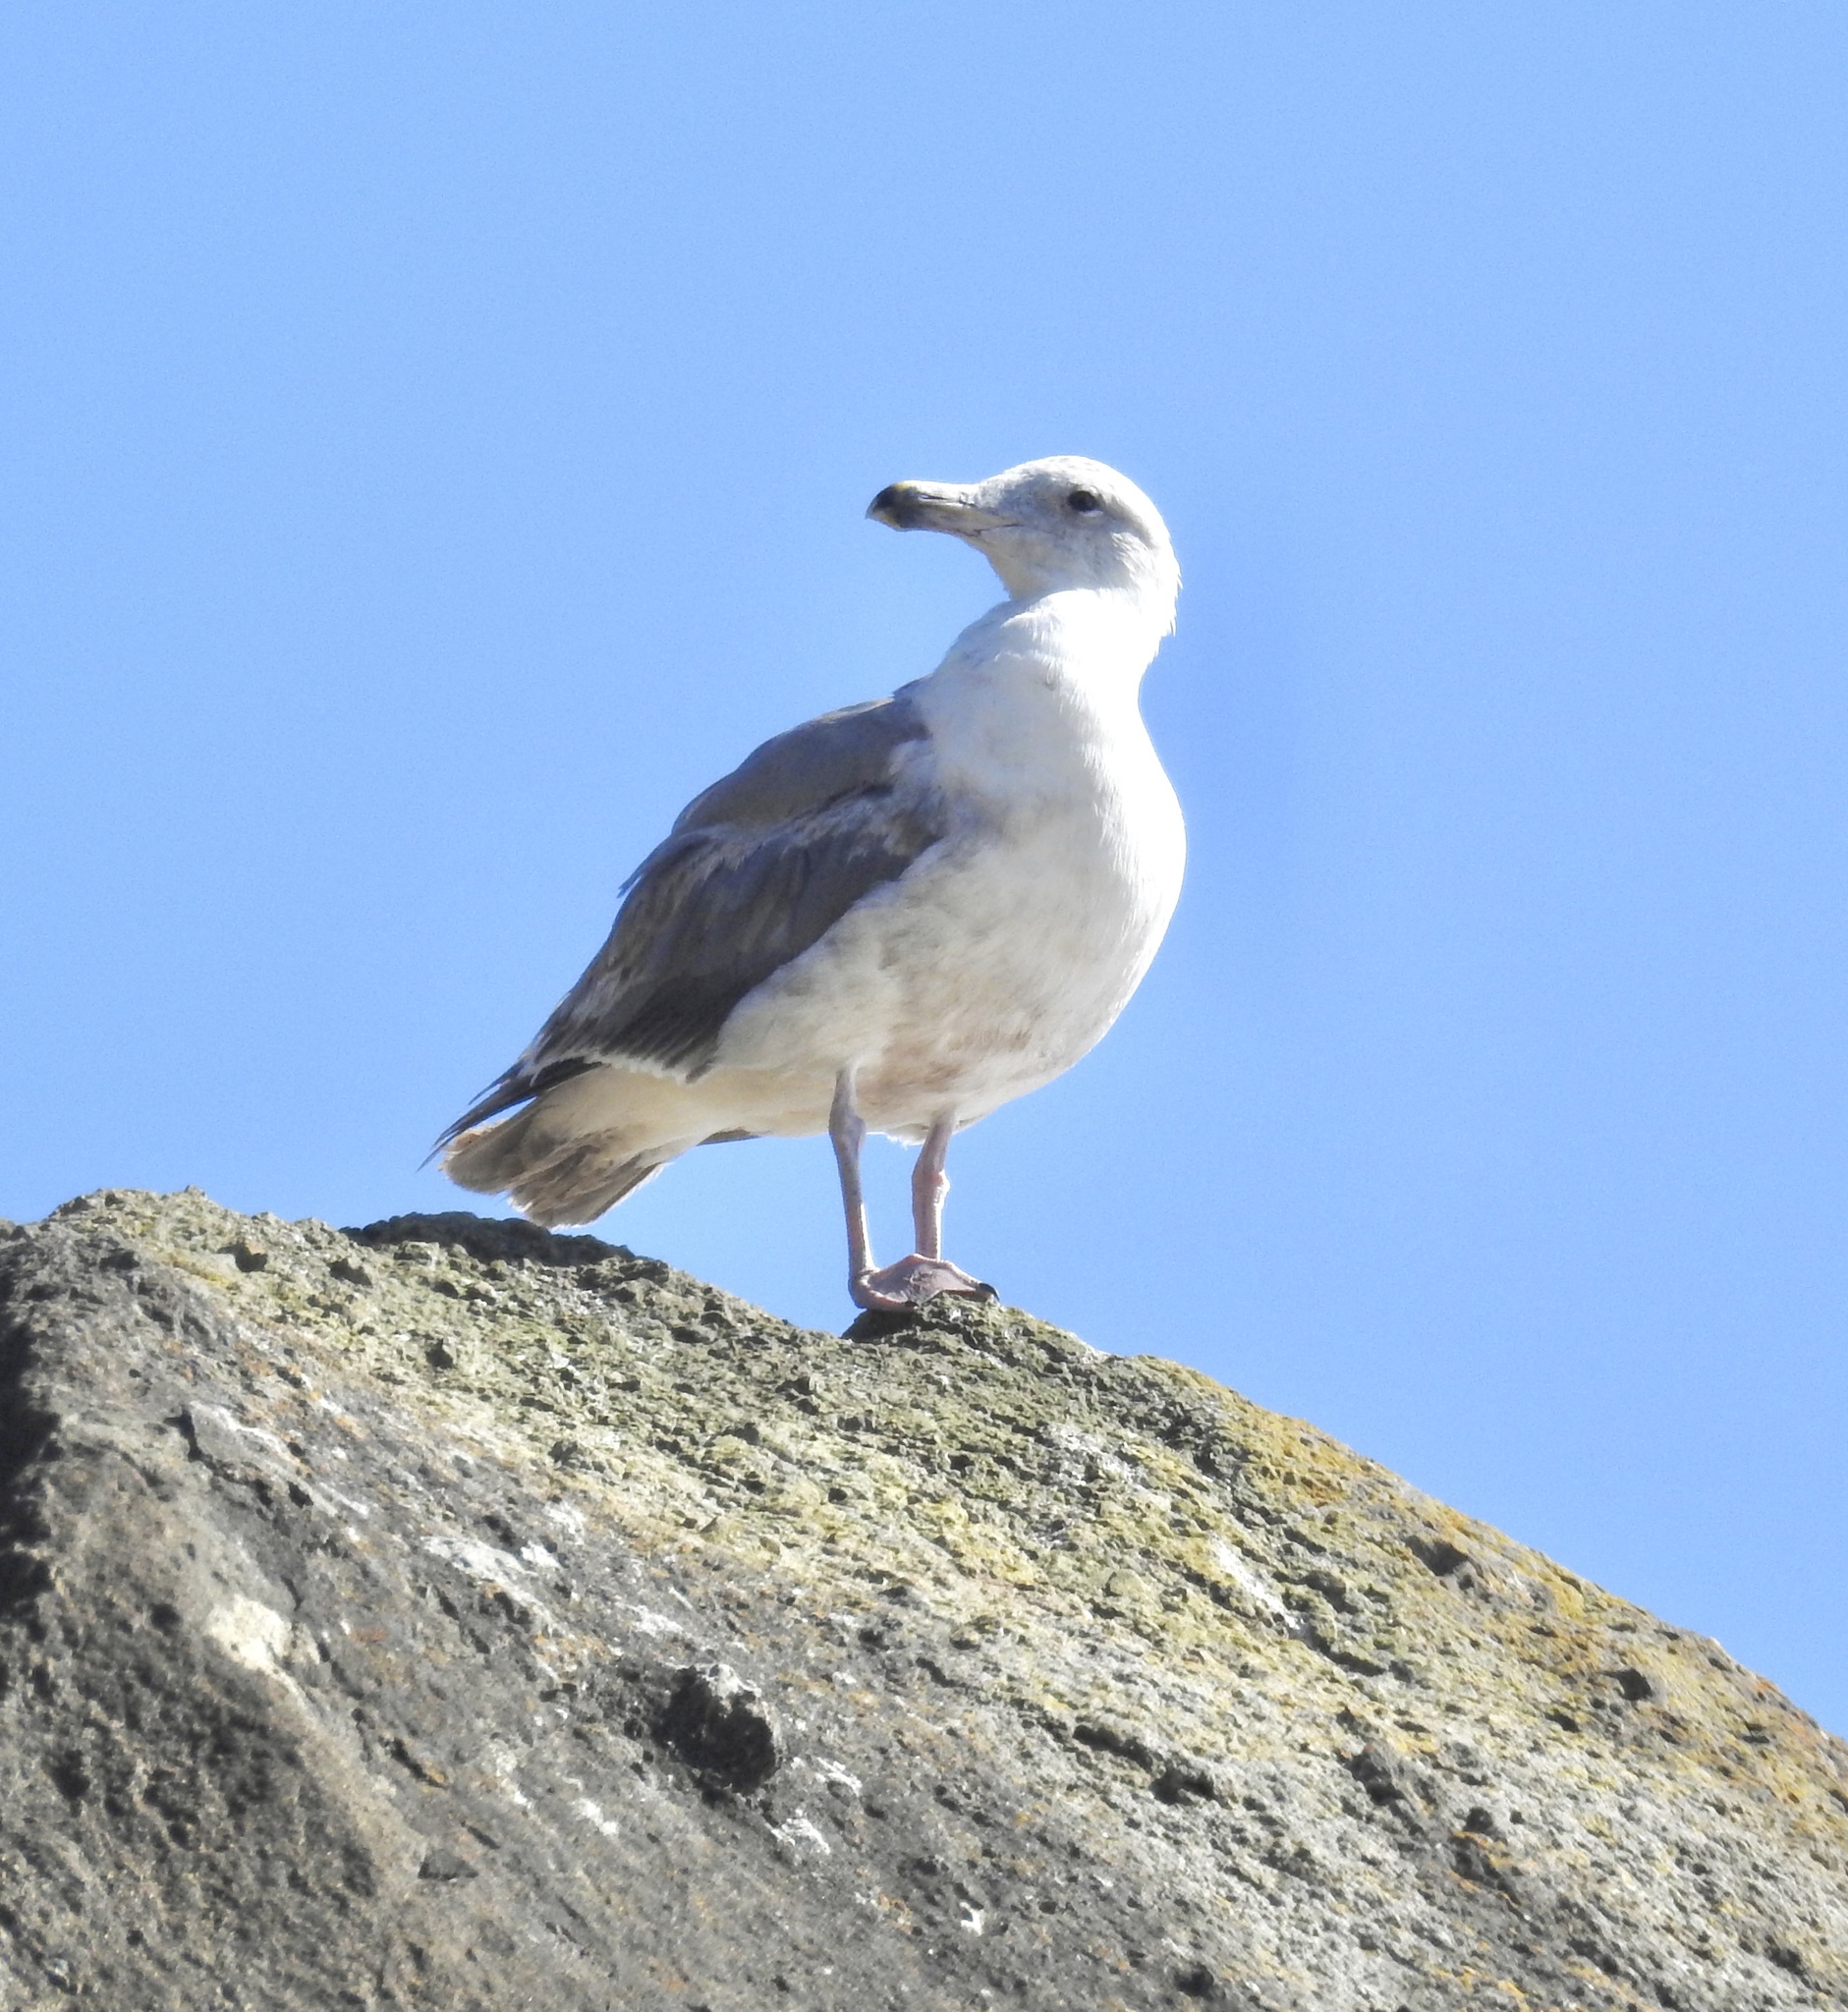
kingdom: Animalia
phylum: Chordata
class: Aves
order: Charadriiformes
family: Laridae
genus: Larus
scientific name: Larus occidentalis
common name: Western gull
